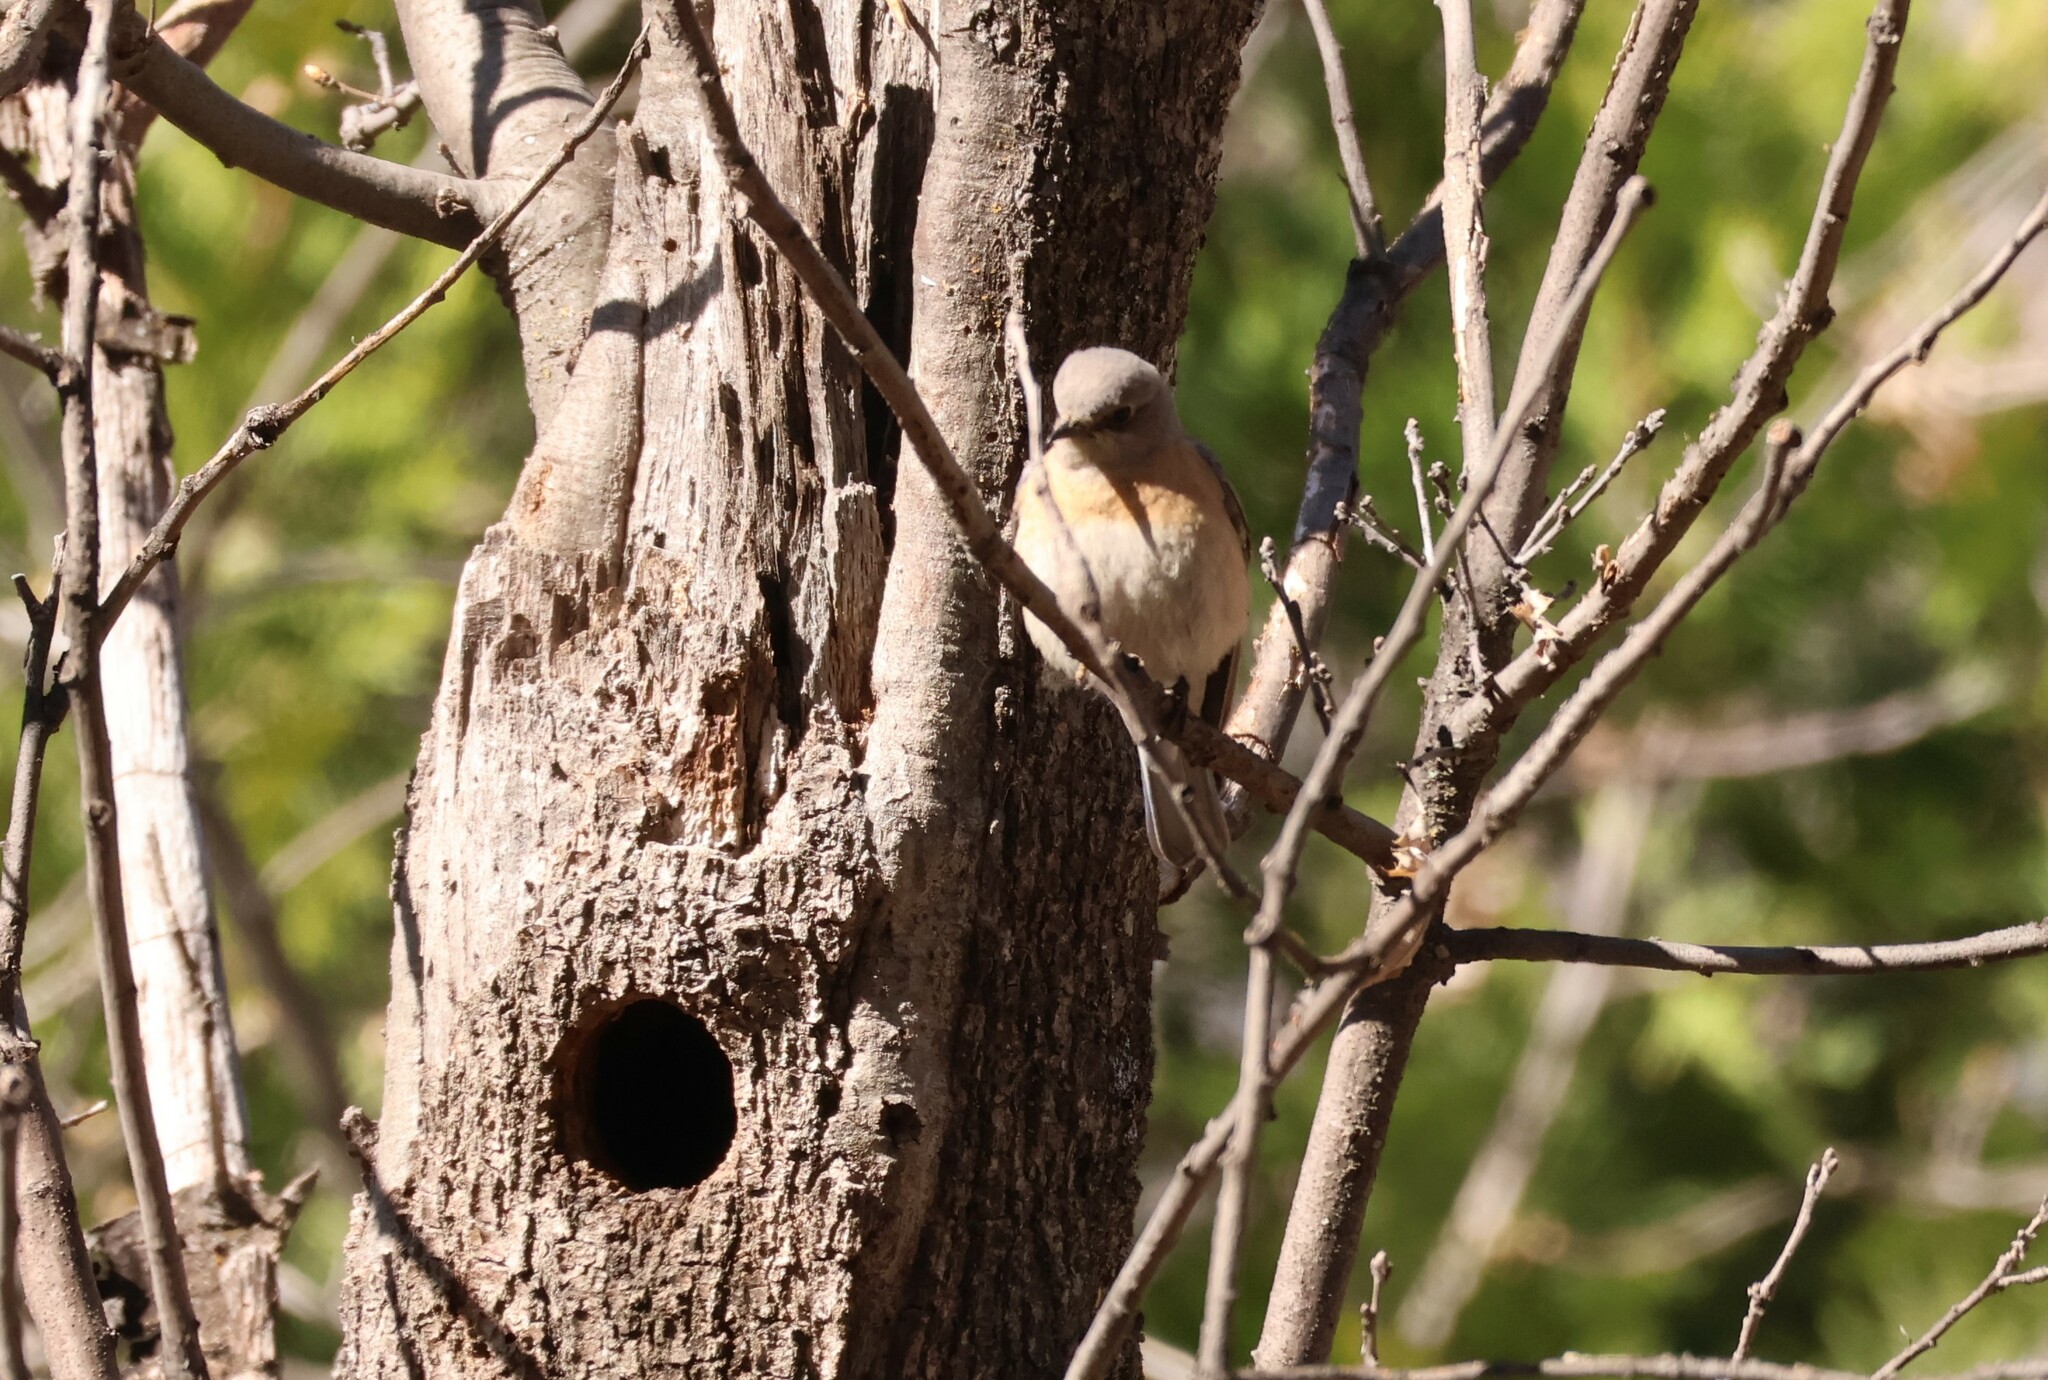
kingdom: Animalia
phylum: Chordata
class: Aves
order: Passeriformes
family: Turdidae
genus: Sialia
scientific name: Sialia mexicana
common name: Western bluebird
